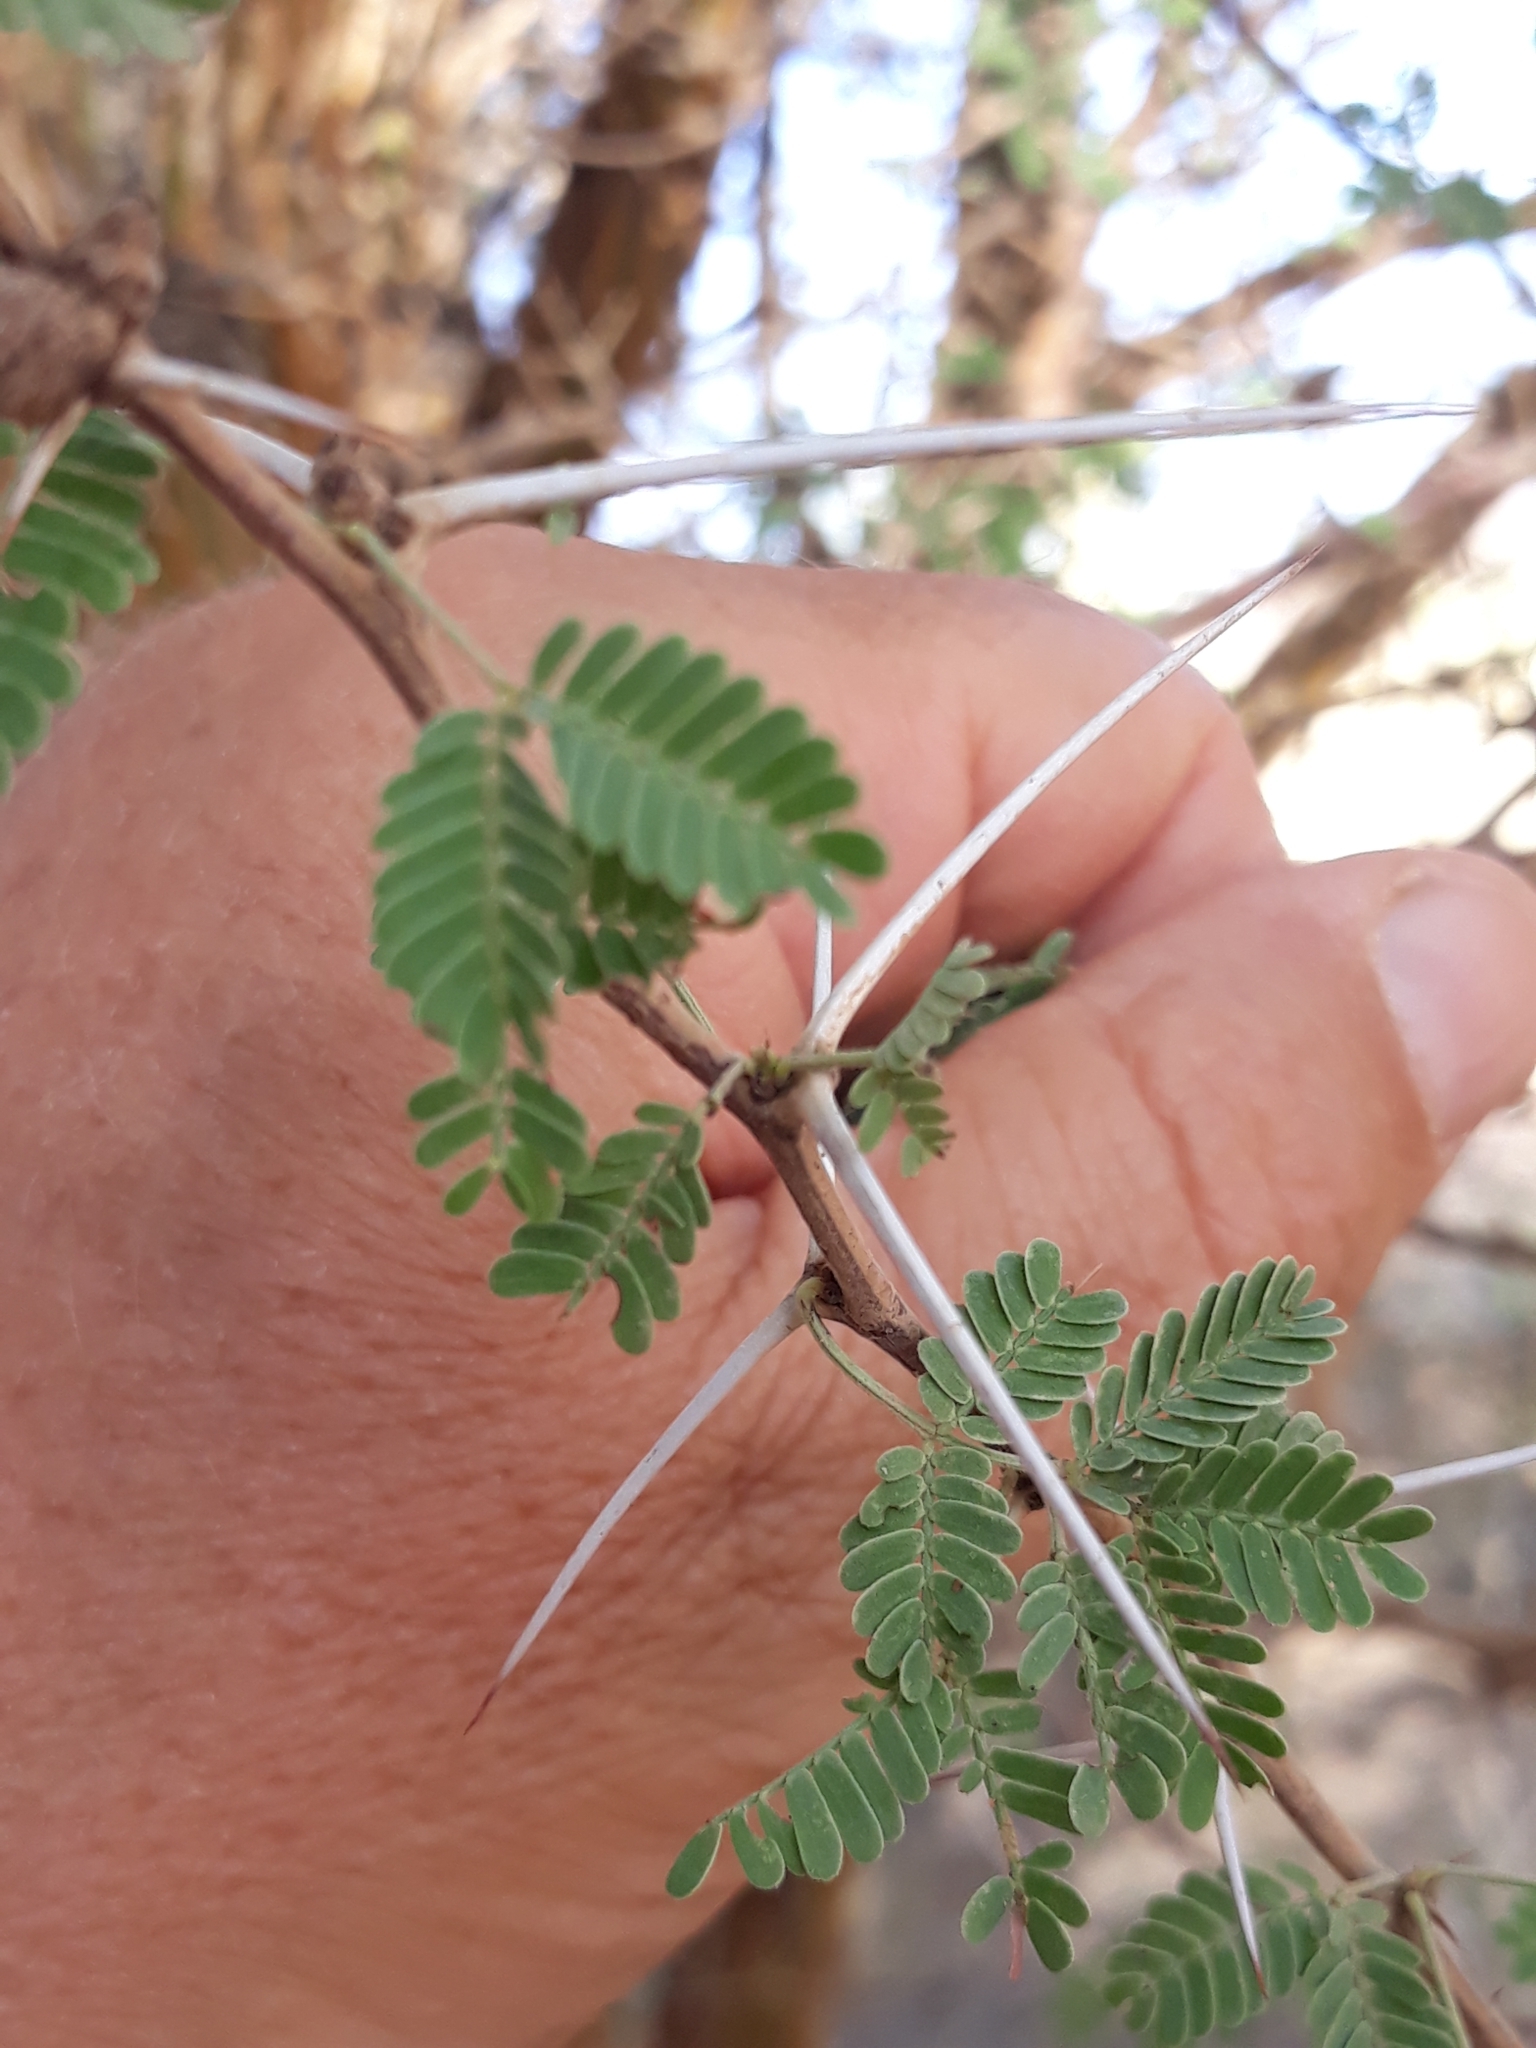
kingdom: Plantae
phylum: Tracheophyta
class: Magnoliopsida
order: Fabales
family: Fabaceae
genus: Vachellia
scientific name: Vachellia flava
